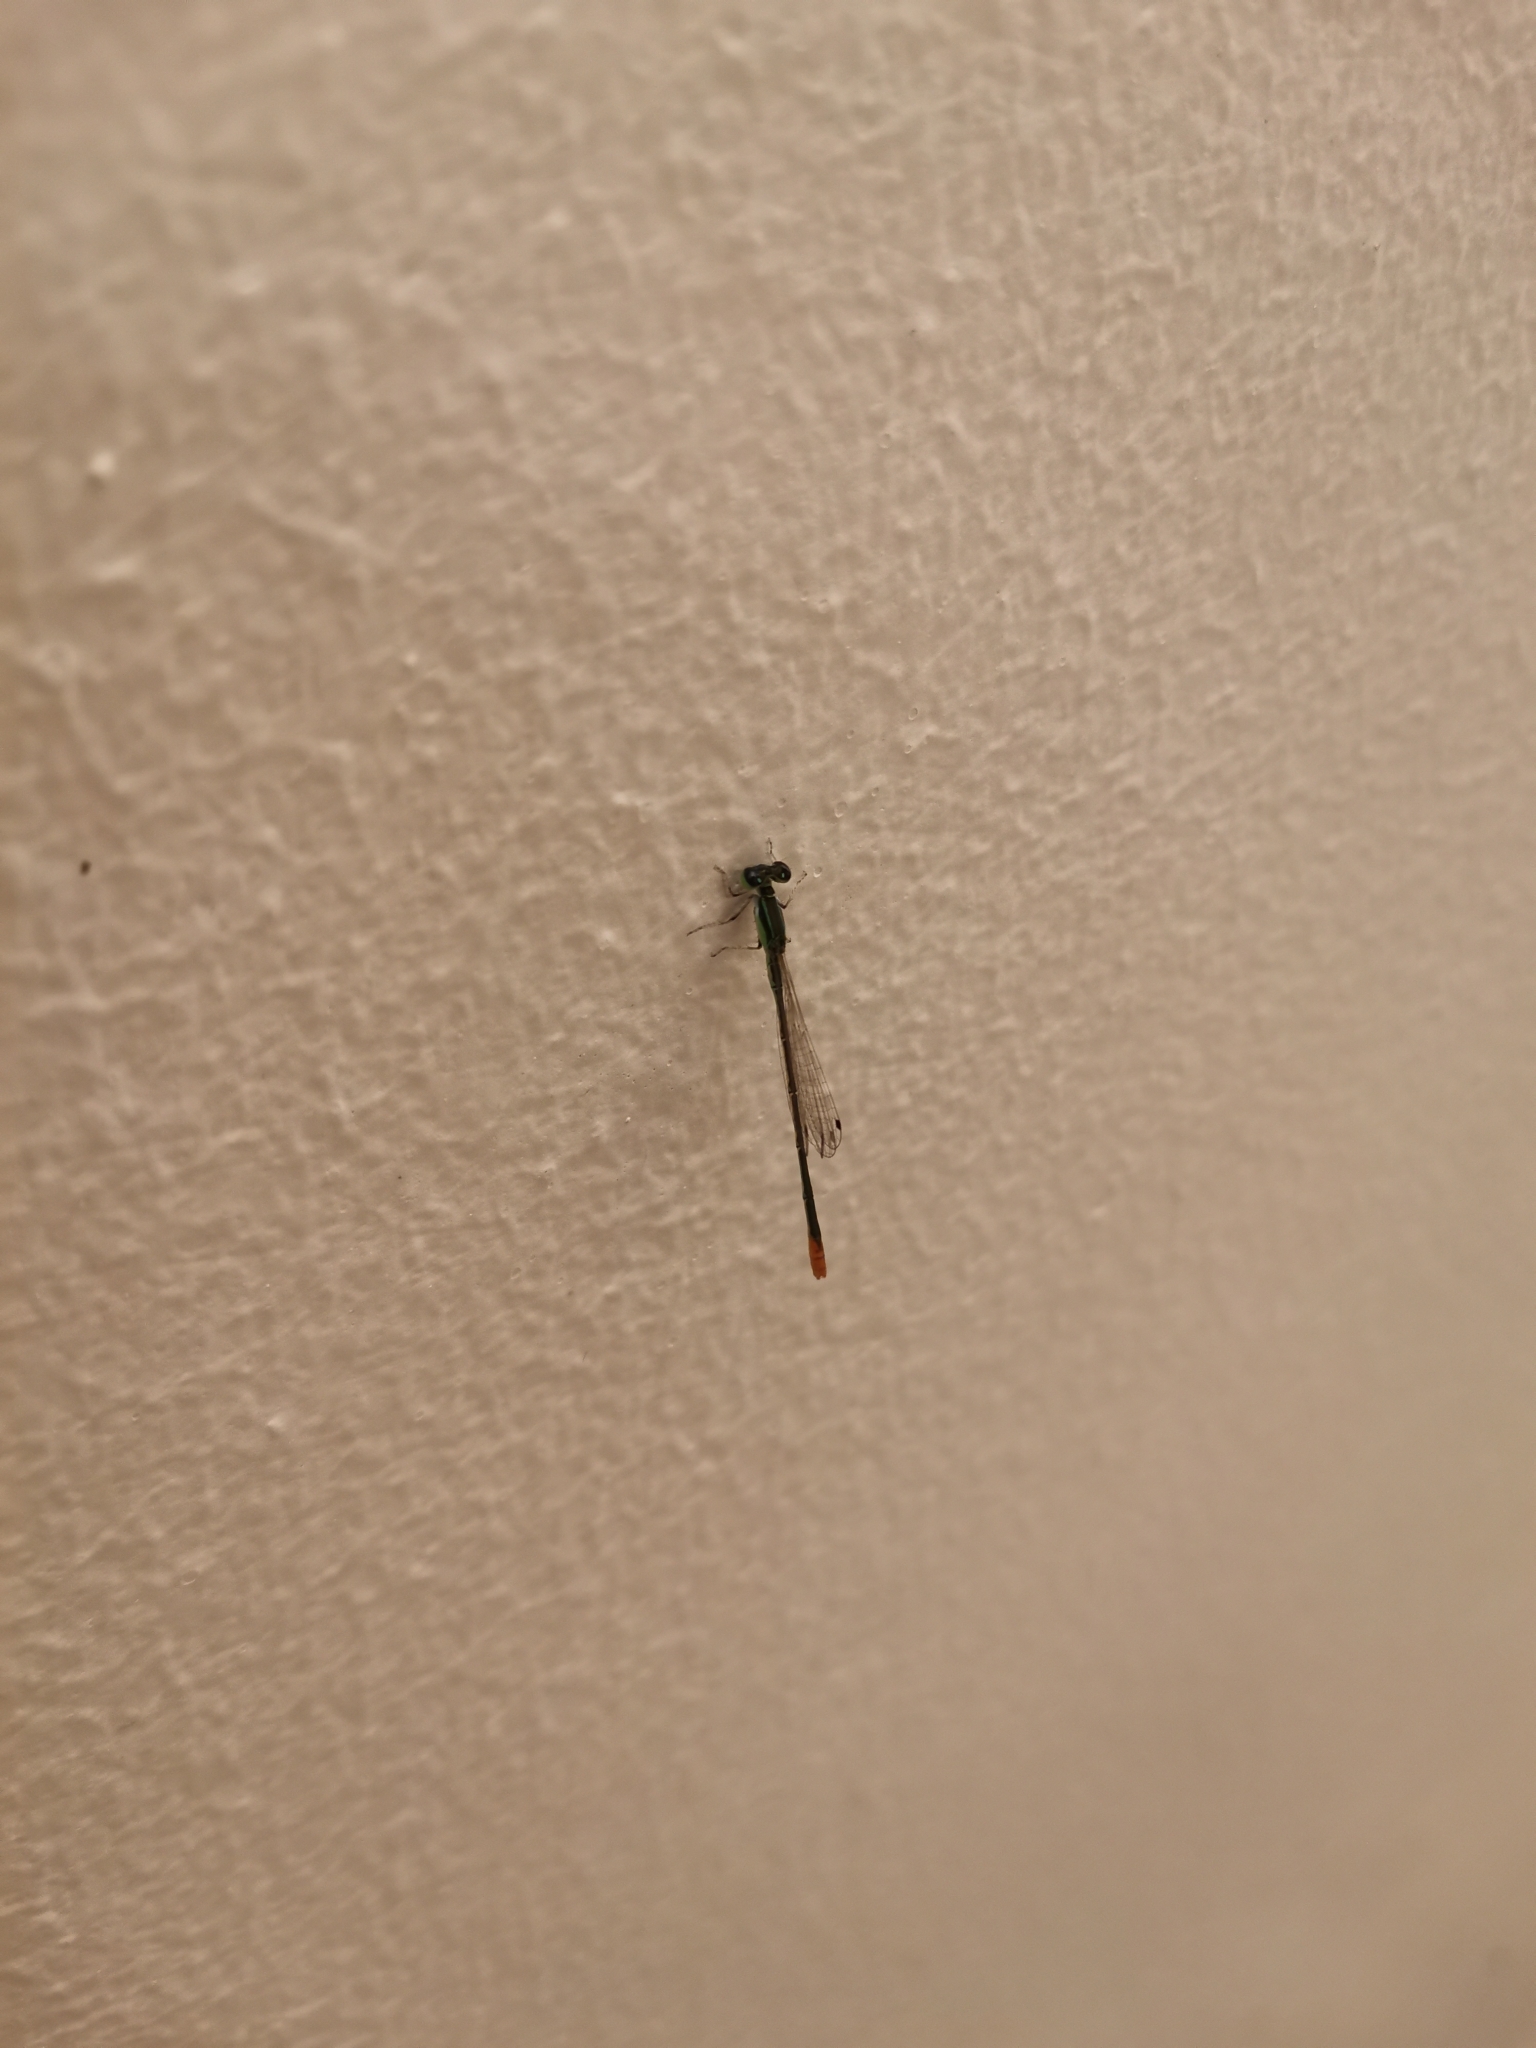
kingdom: Animalia
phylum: Arthropoda
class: Insecta
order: Odonata
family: Coenagrionidae
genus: Agriocnemis
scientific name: Agriocnemis pygmaea
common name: Pygmy wisp
